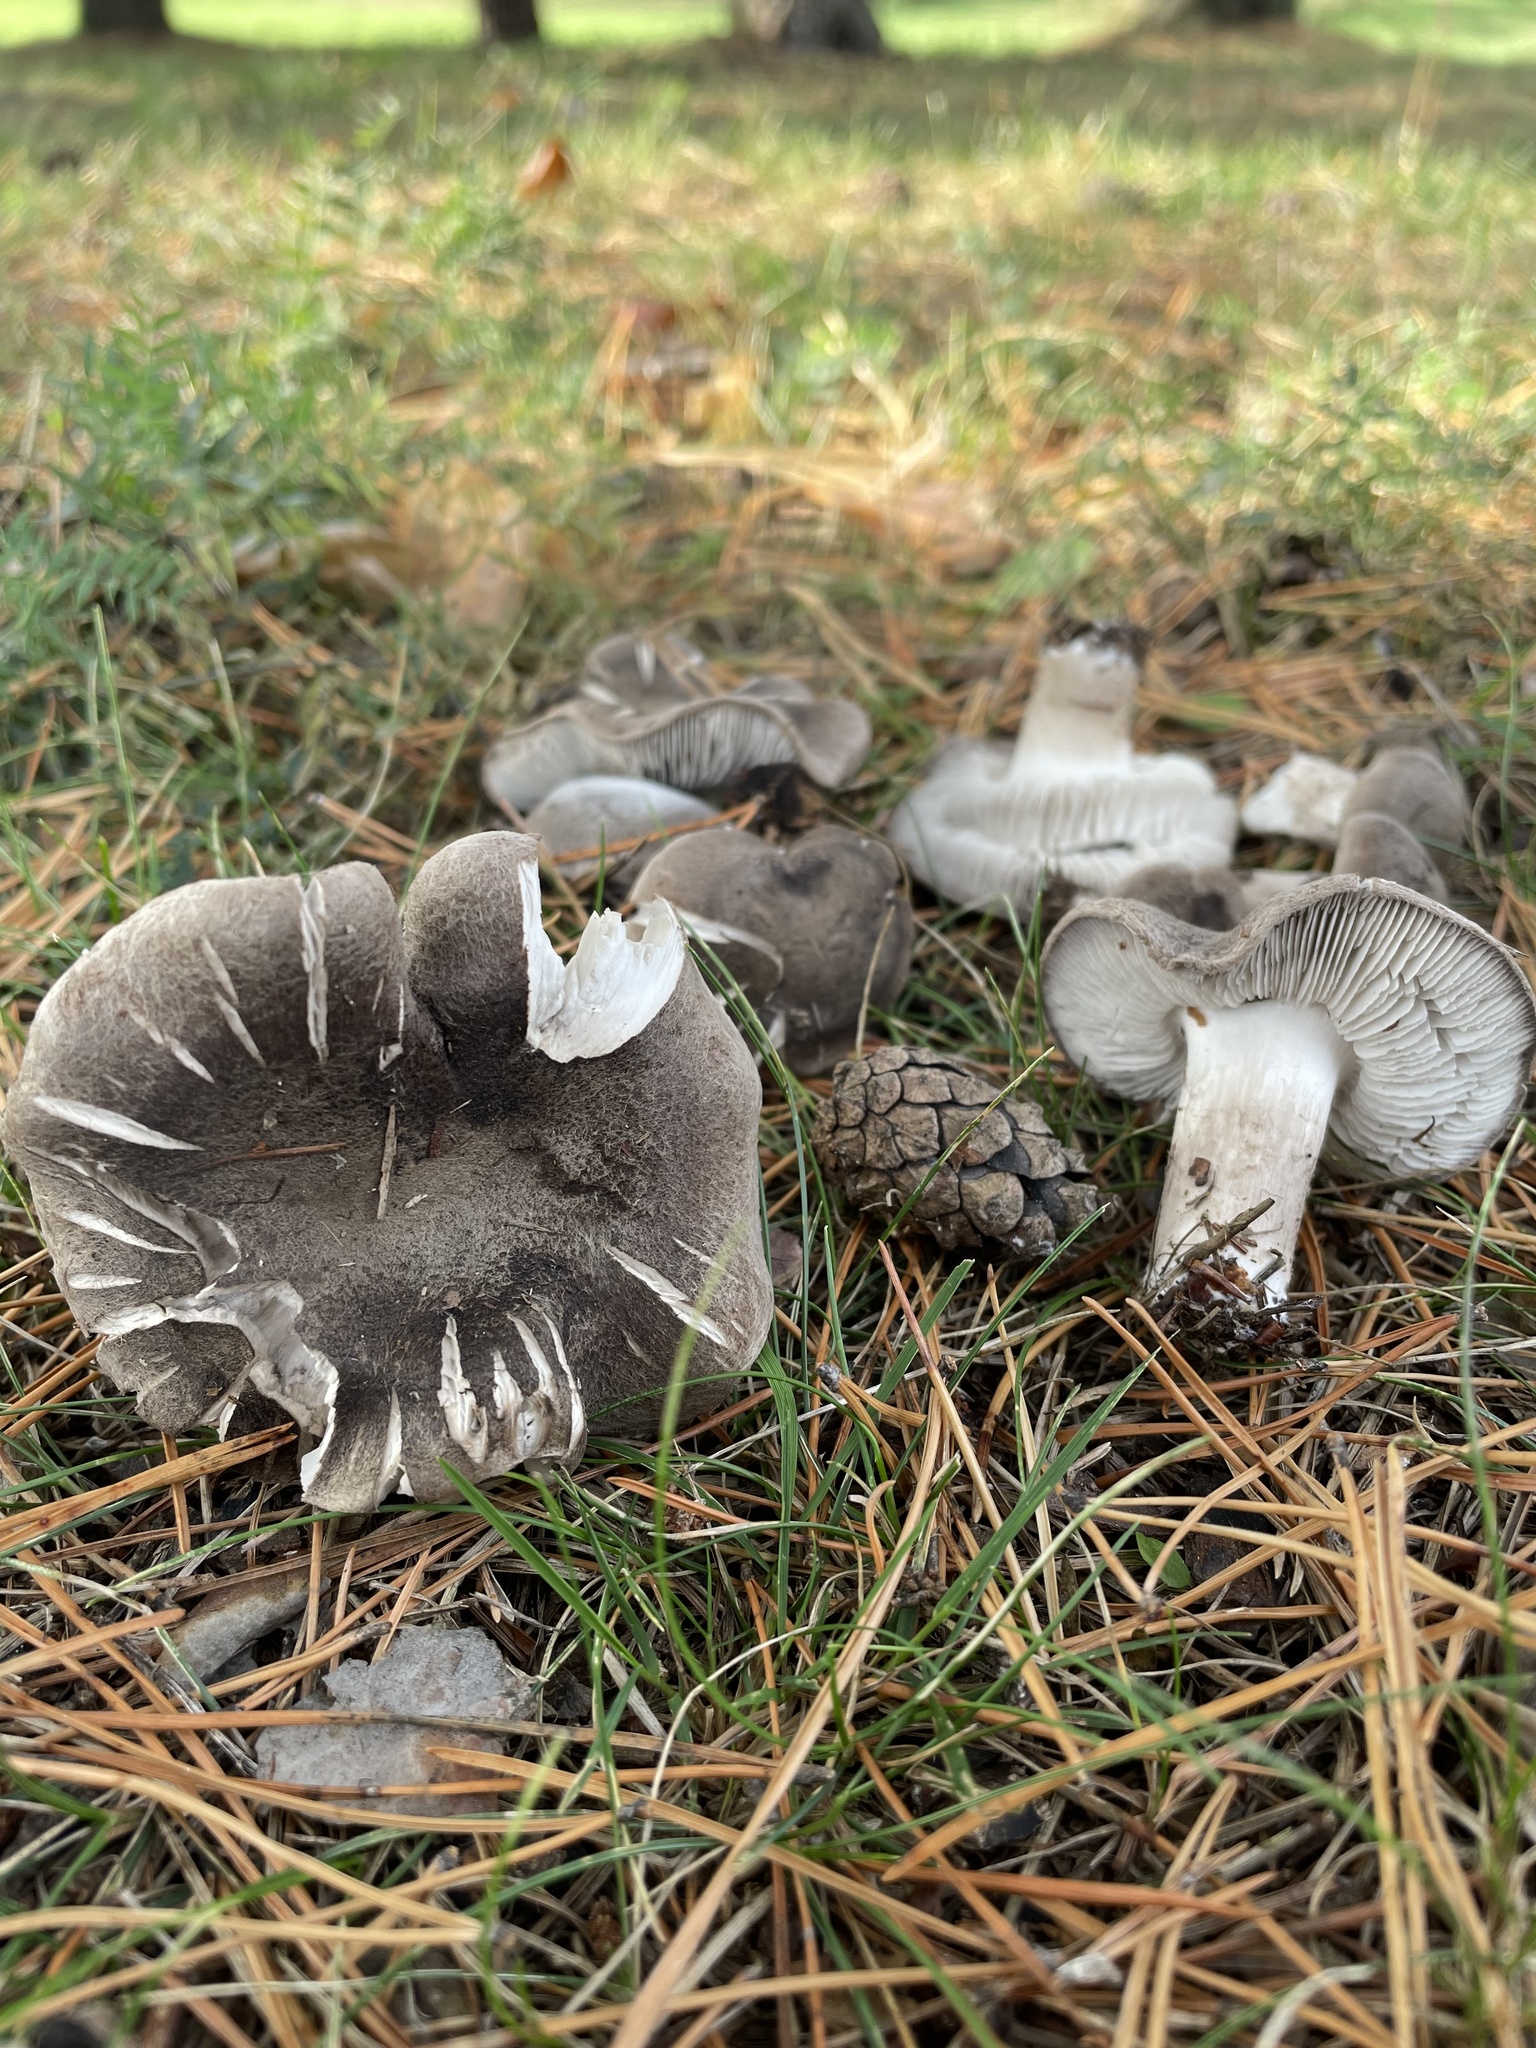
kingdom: Fungi
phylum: Basidiomycota
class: Agaricomycetes
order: Agaricales
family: Tricholomataceae
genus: Tricholoma
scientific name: Tricholoma terreum
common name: Grey knight
